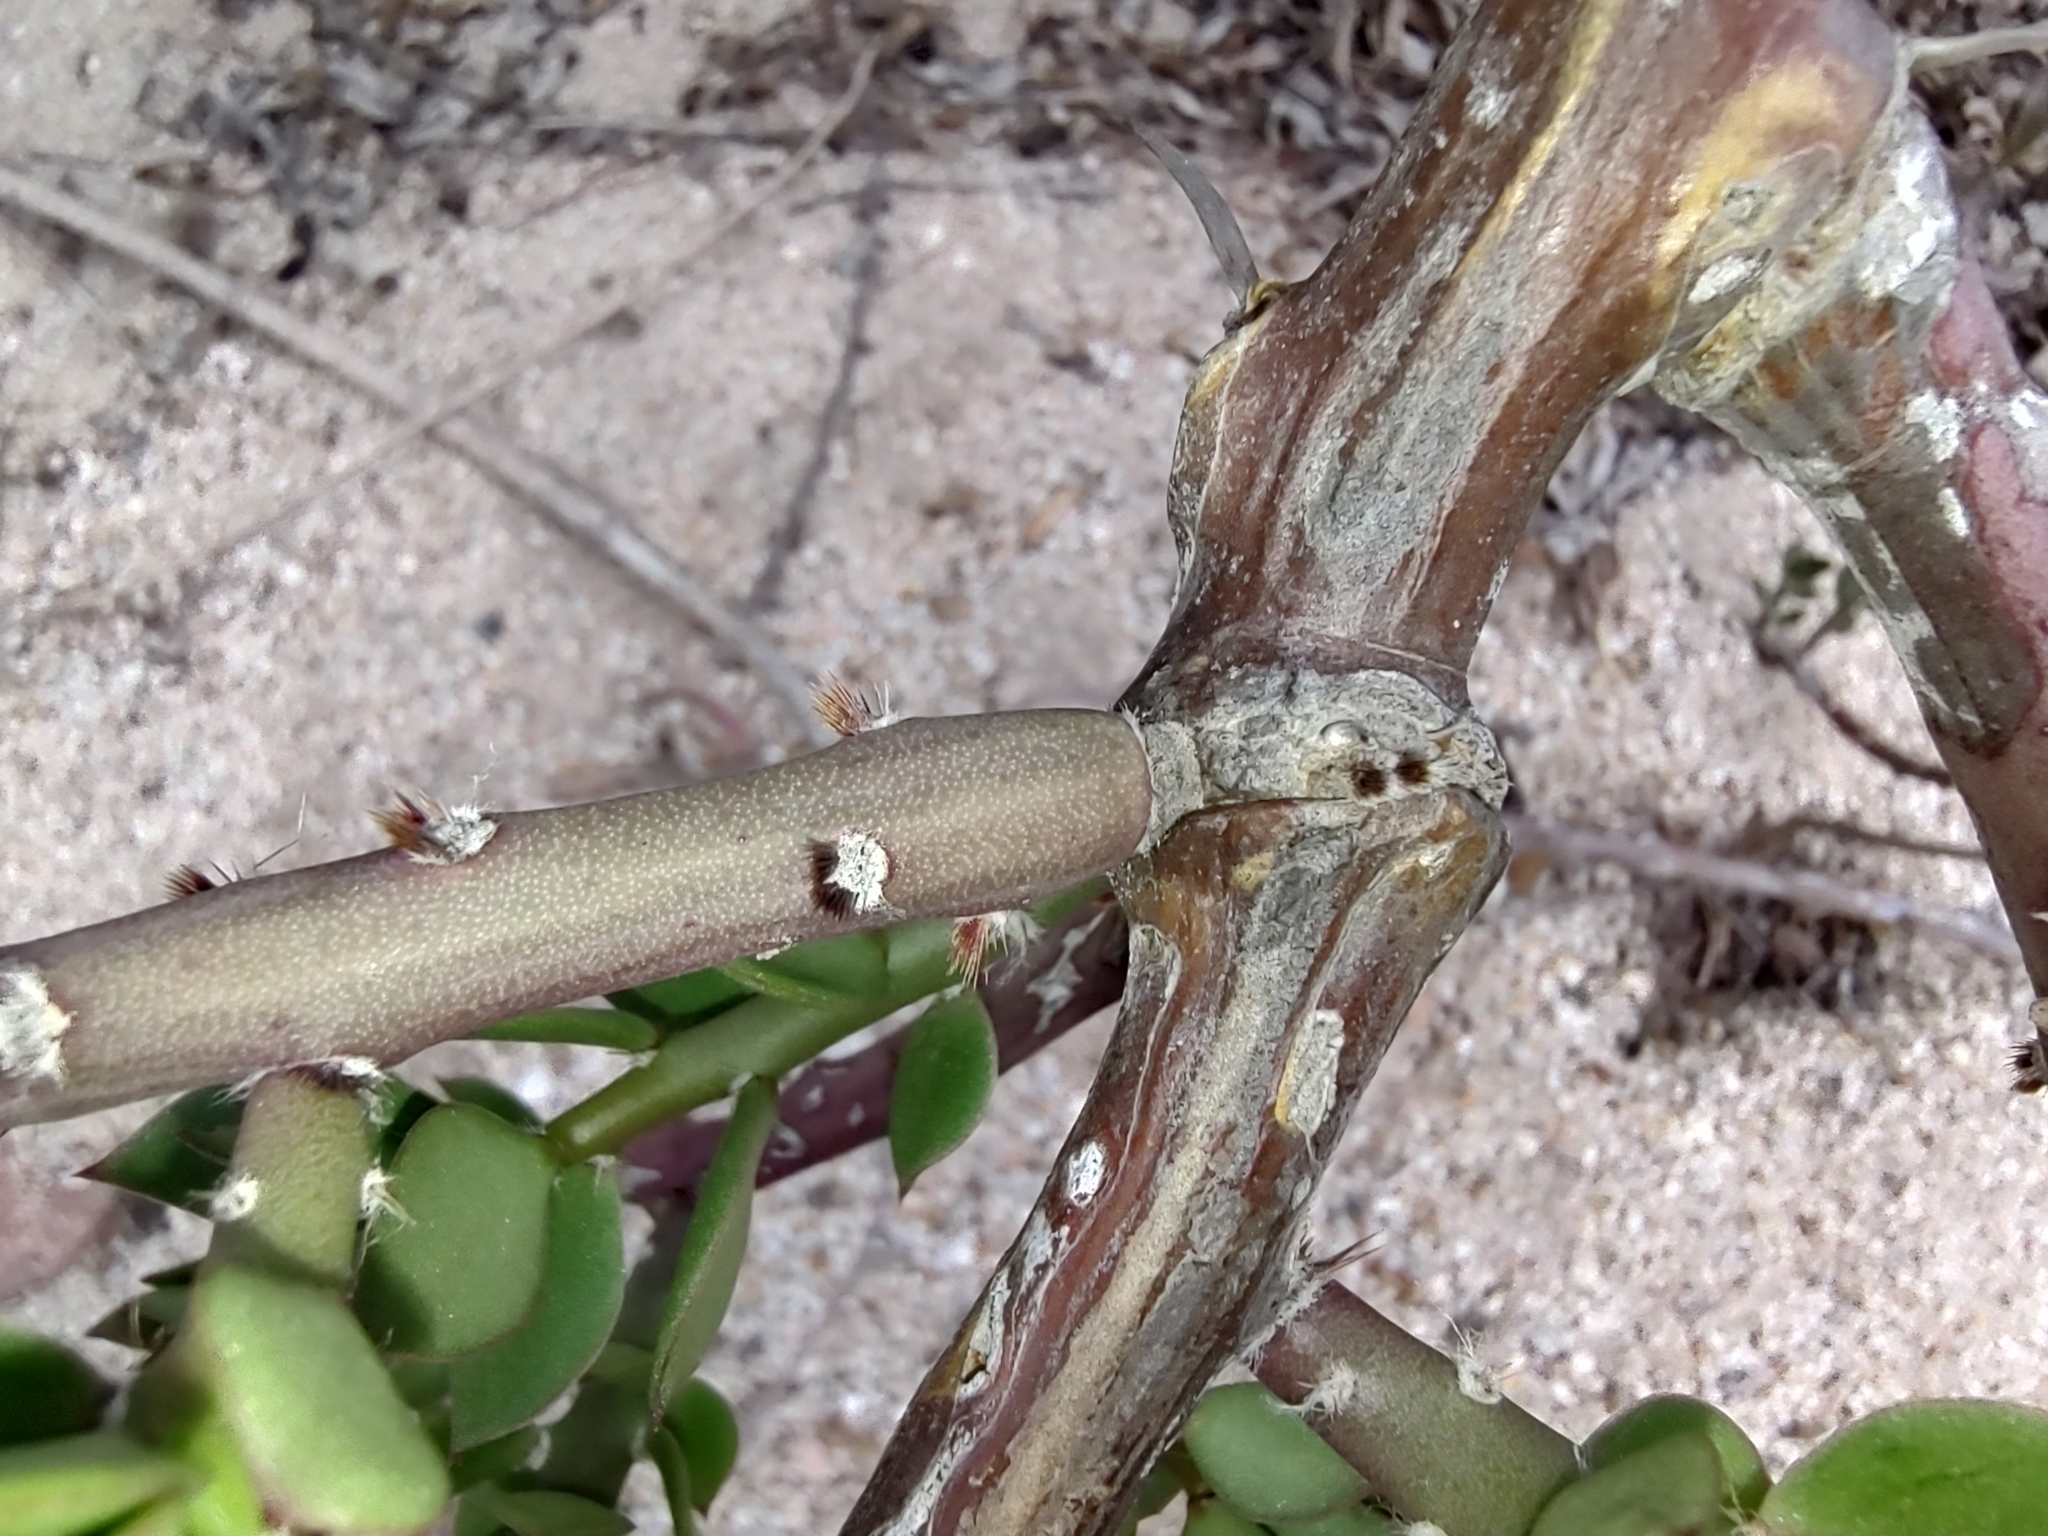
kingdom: Plantae
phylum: Tracheophyta
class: Magnoliopsida
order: Caryophyllales
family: Cactaceae
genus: Pereskiopsis
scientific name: Pereskiopsis porteri
